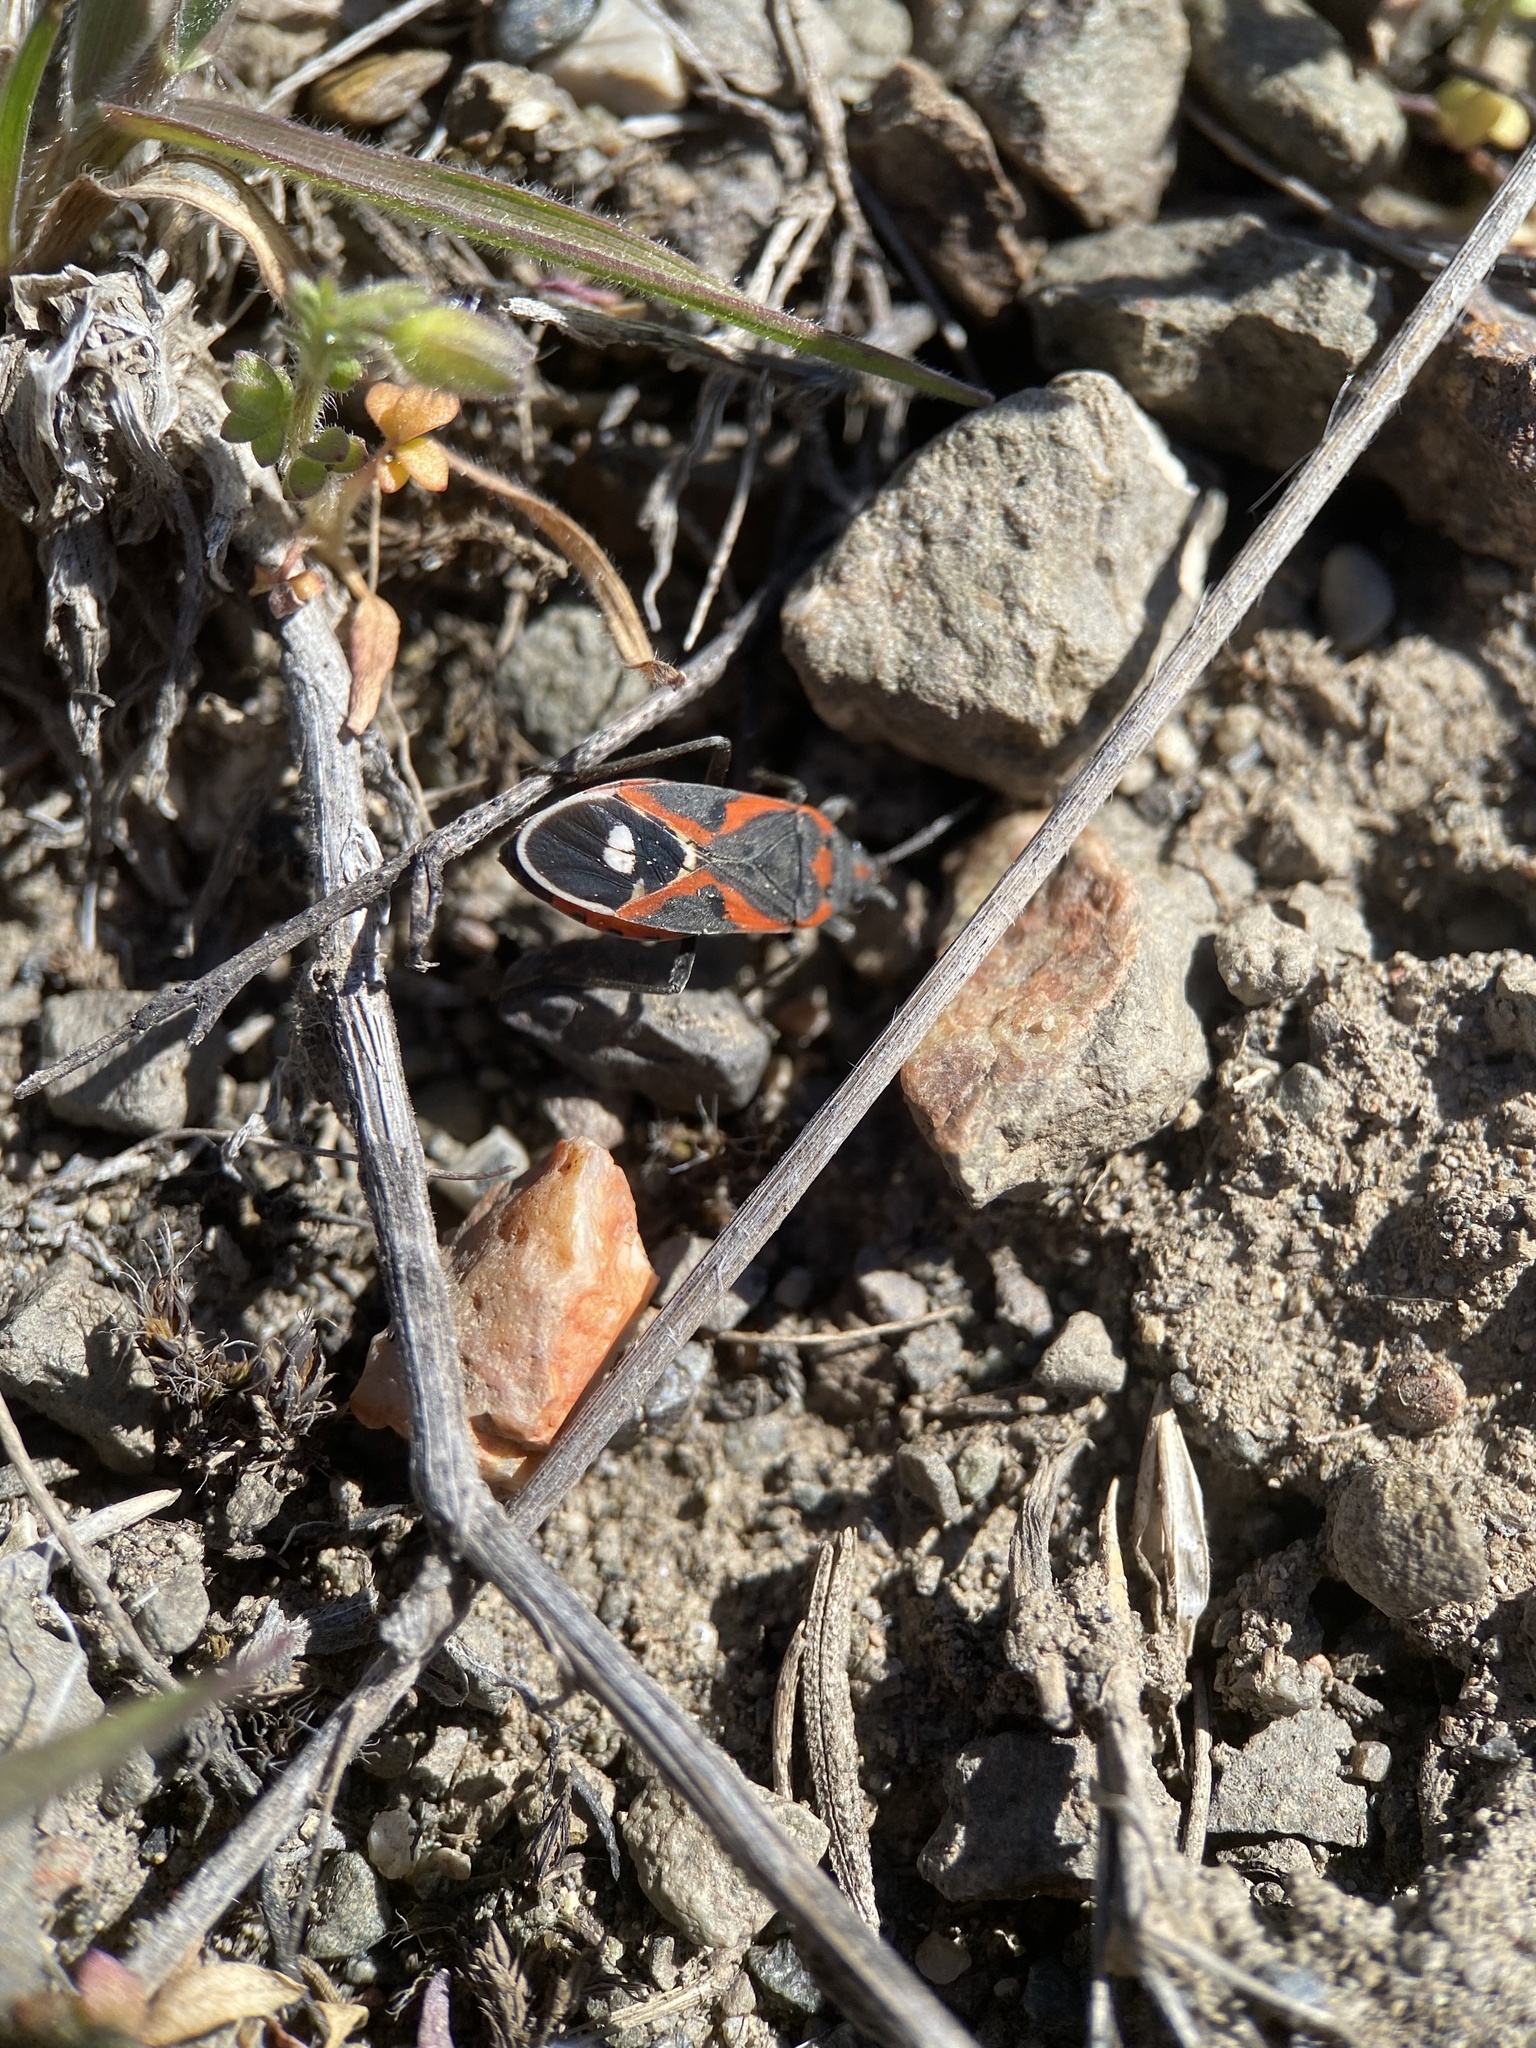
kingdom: Animalia
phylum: Arthropoda
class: Insecta
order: Hemiptera
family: Lygaeidae
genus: Lygaeus
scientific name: Lygaeus kalmii
